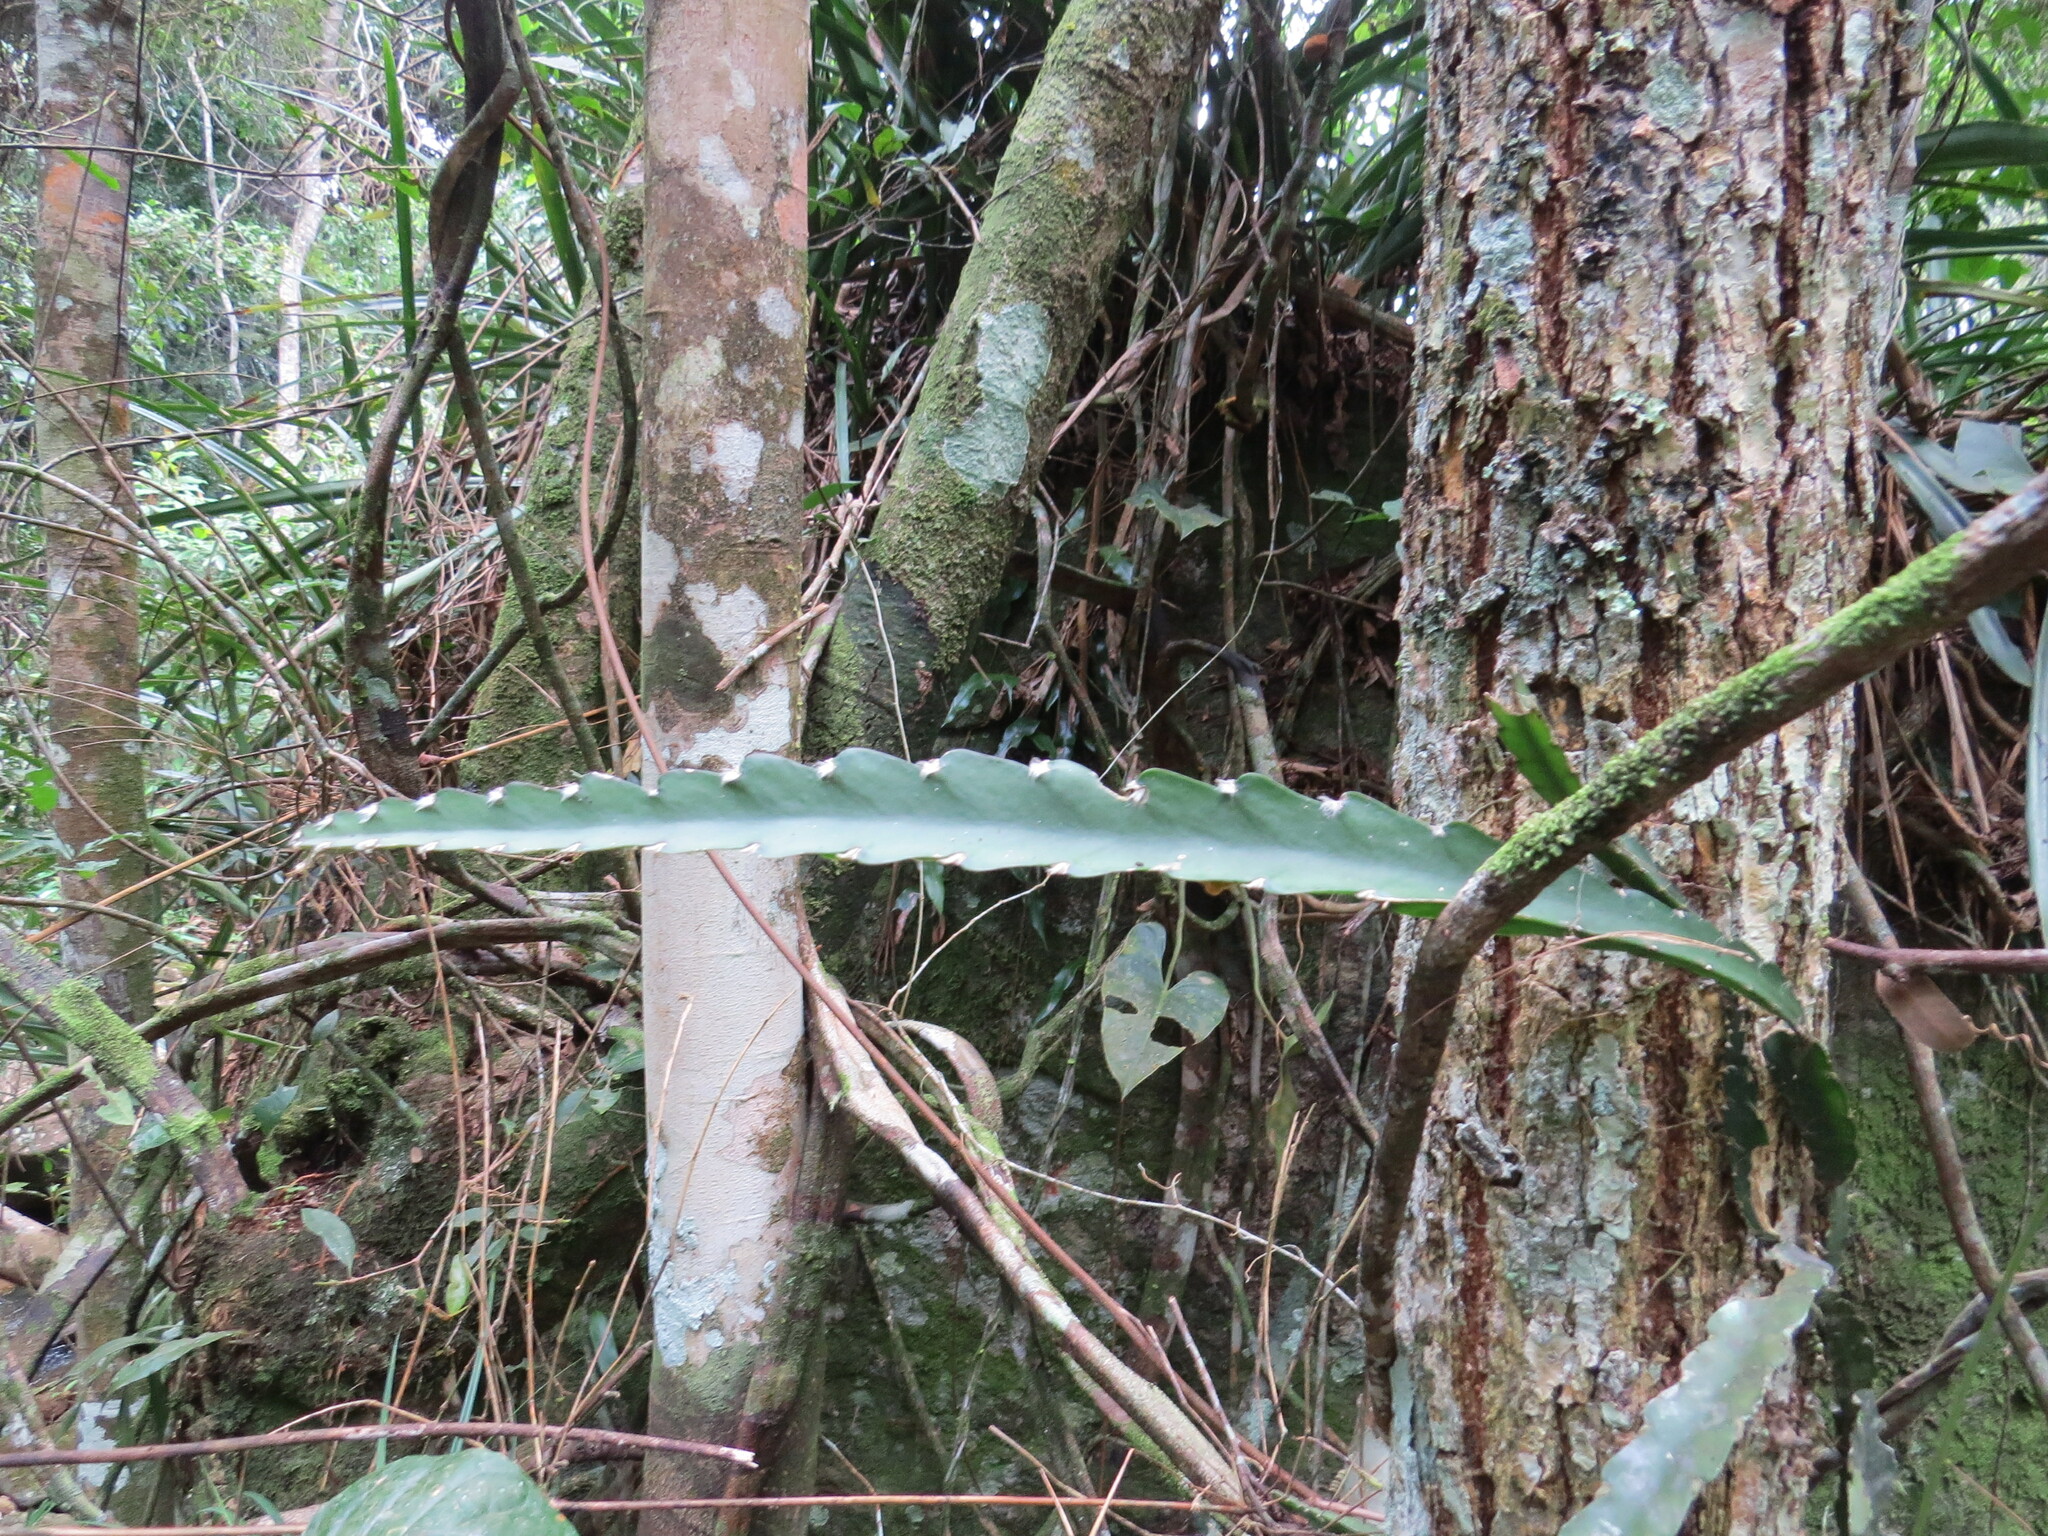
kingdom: Plantae
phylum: Tracheophyta
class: Magnoliopsida
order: Caryophyllales
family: Cactaceae
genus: Lepismium
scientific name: Lepismium cruciforme
